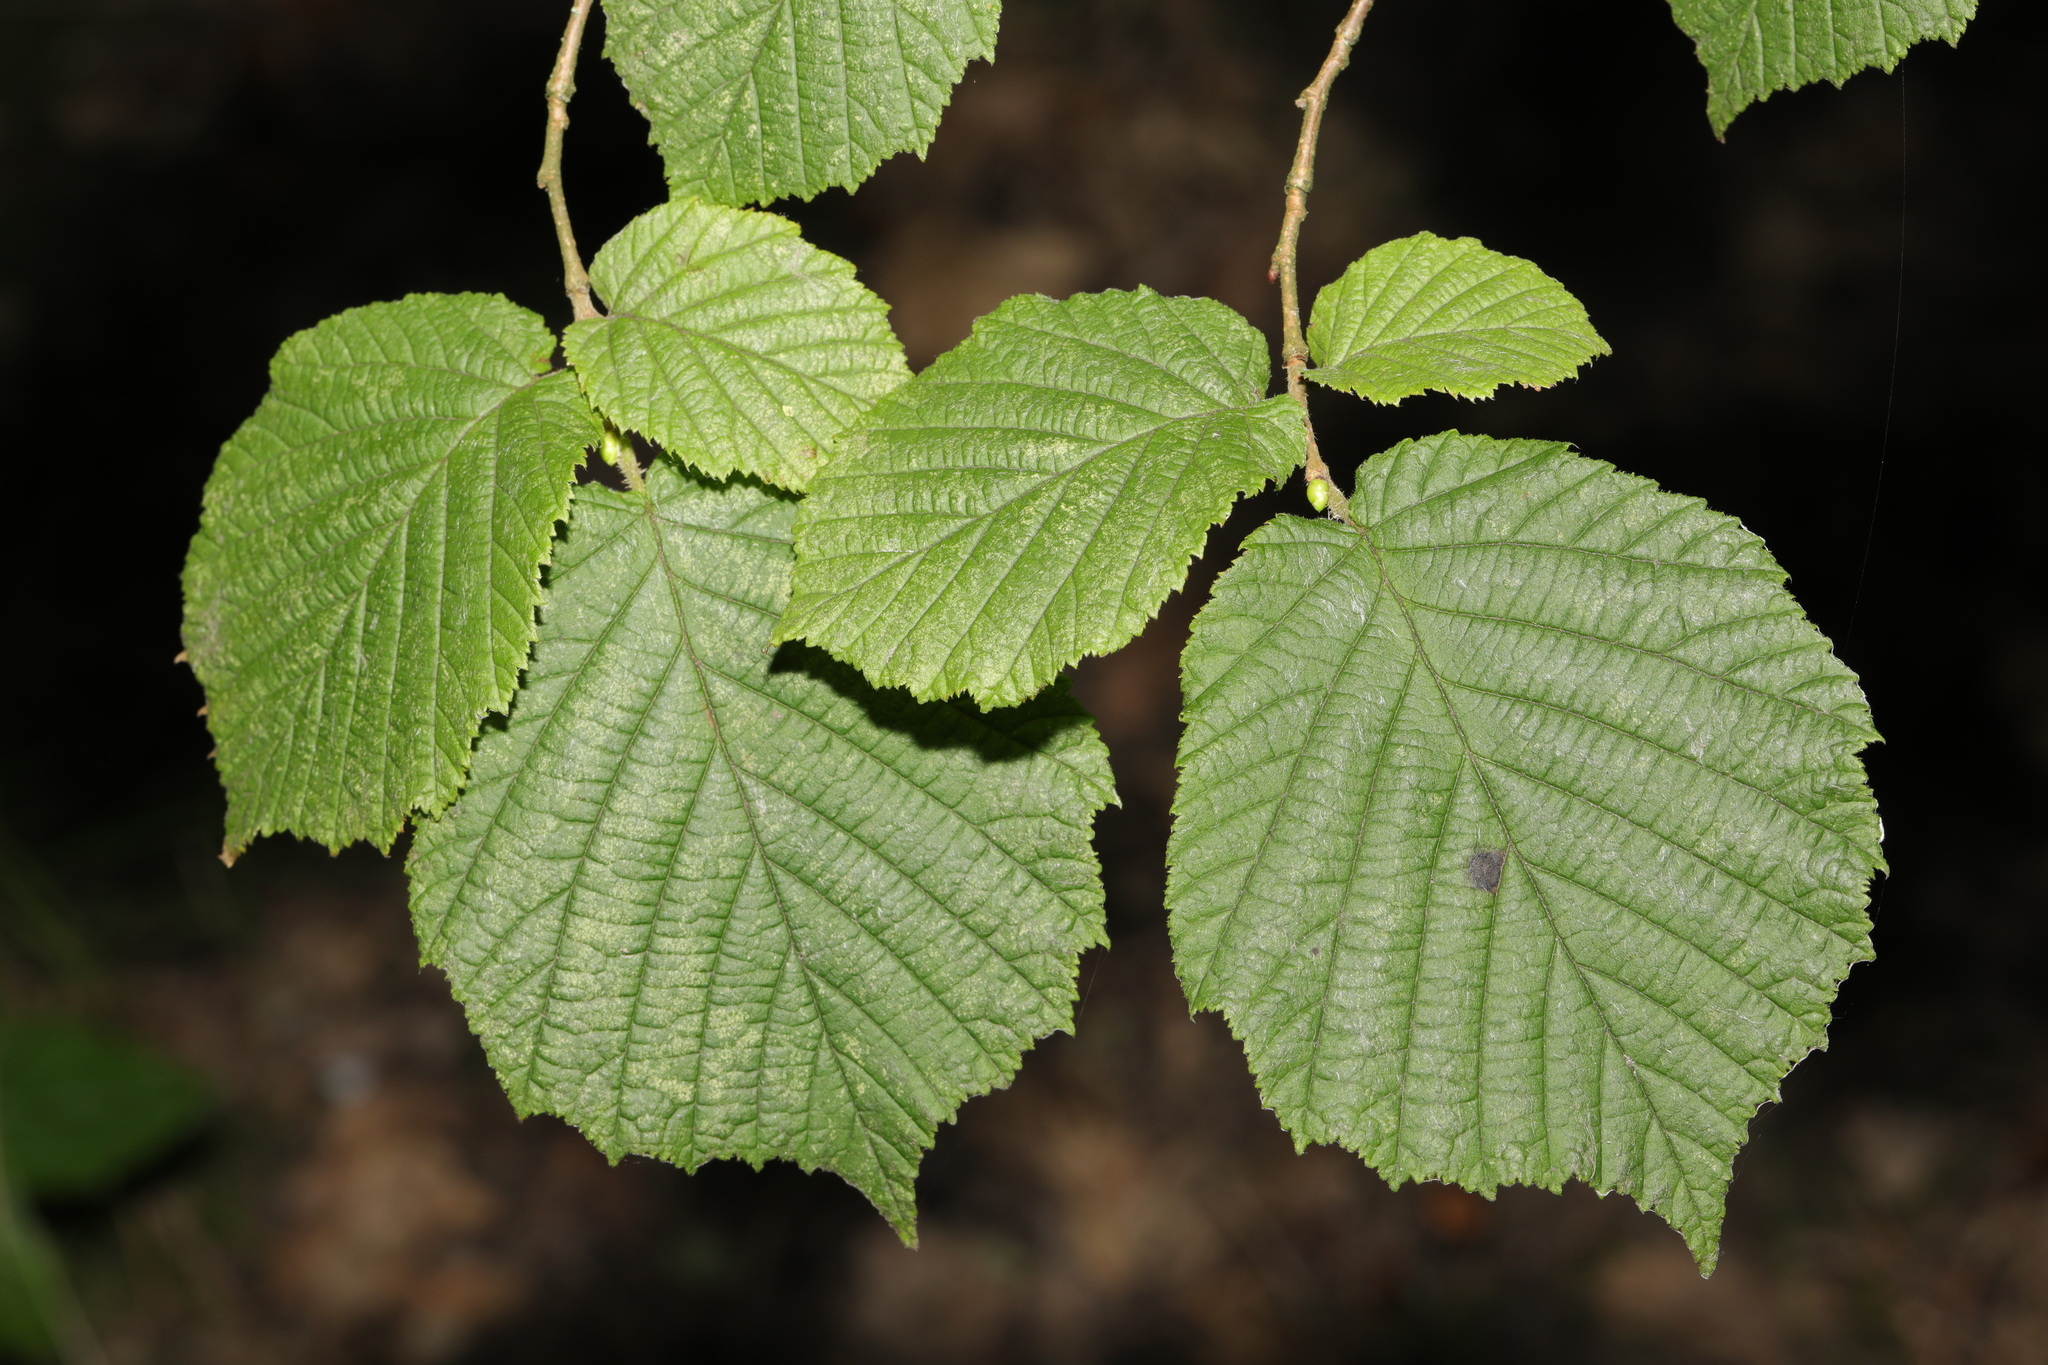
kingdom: Plantae
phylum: Tracheophyta
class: Magnoliopsida
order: Fagales
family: Betulaceae
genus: Corylus
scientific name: Corylus avellana
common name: European hazel
